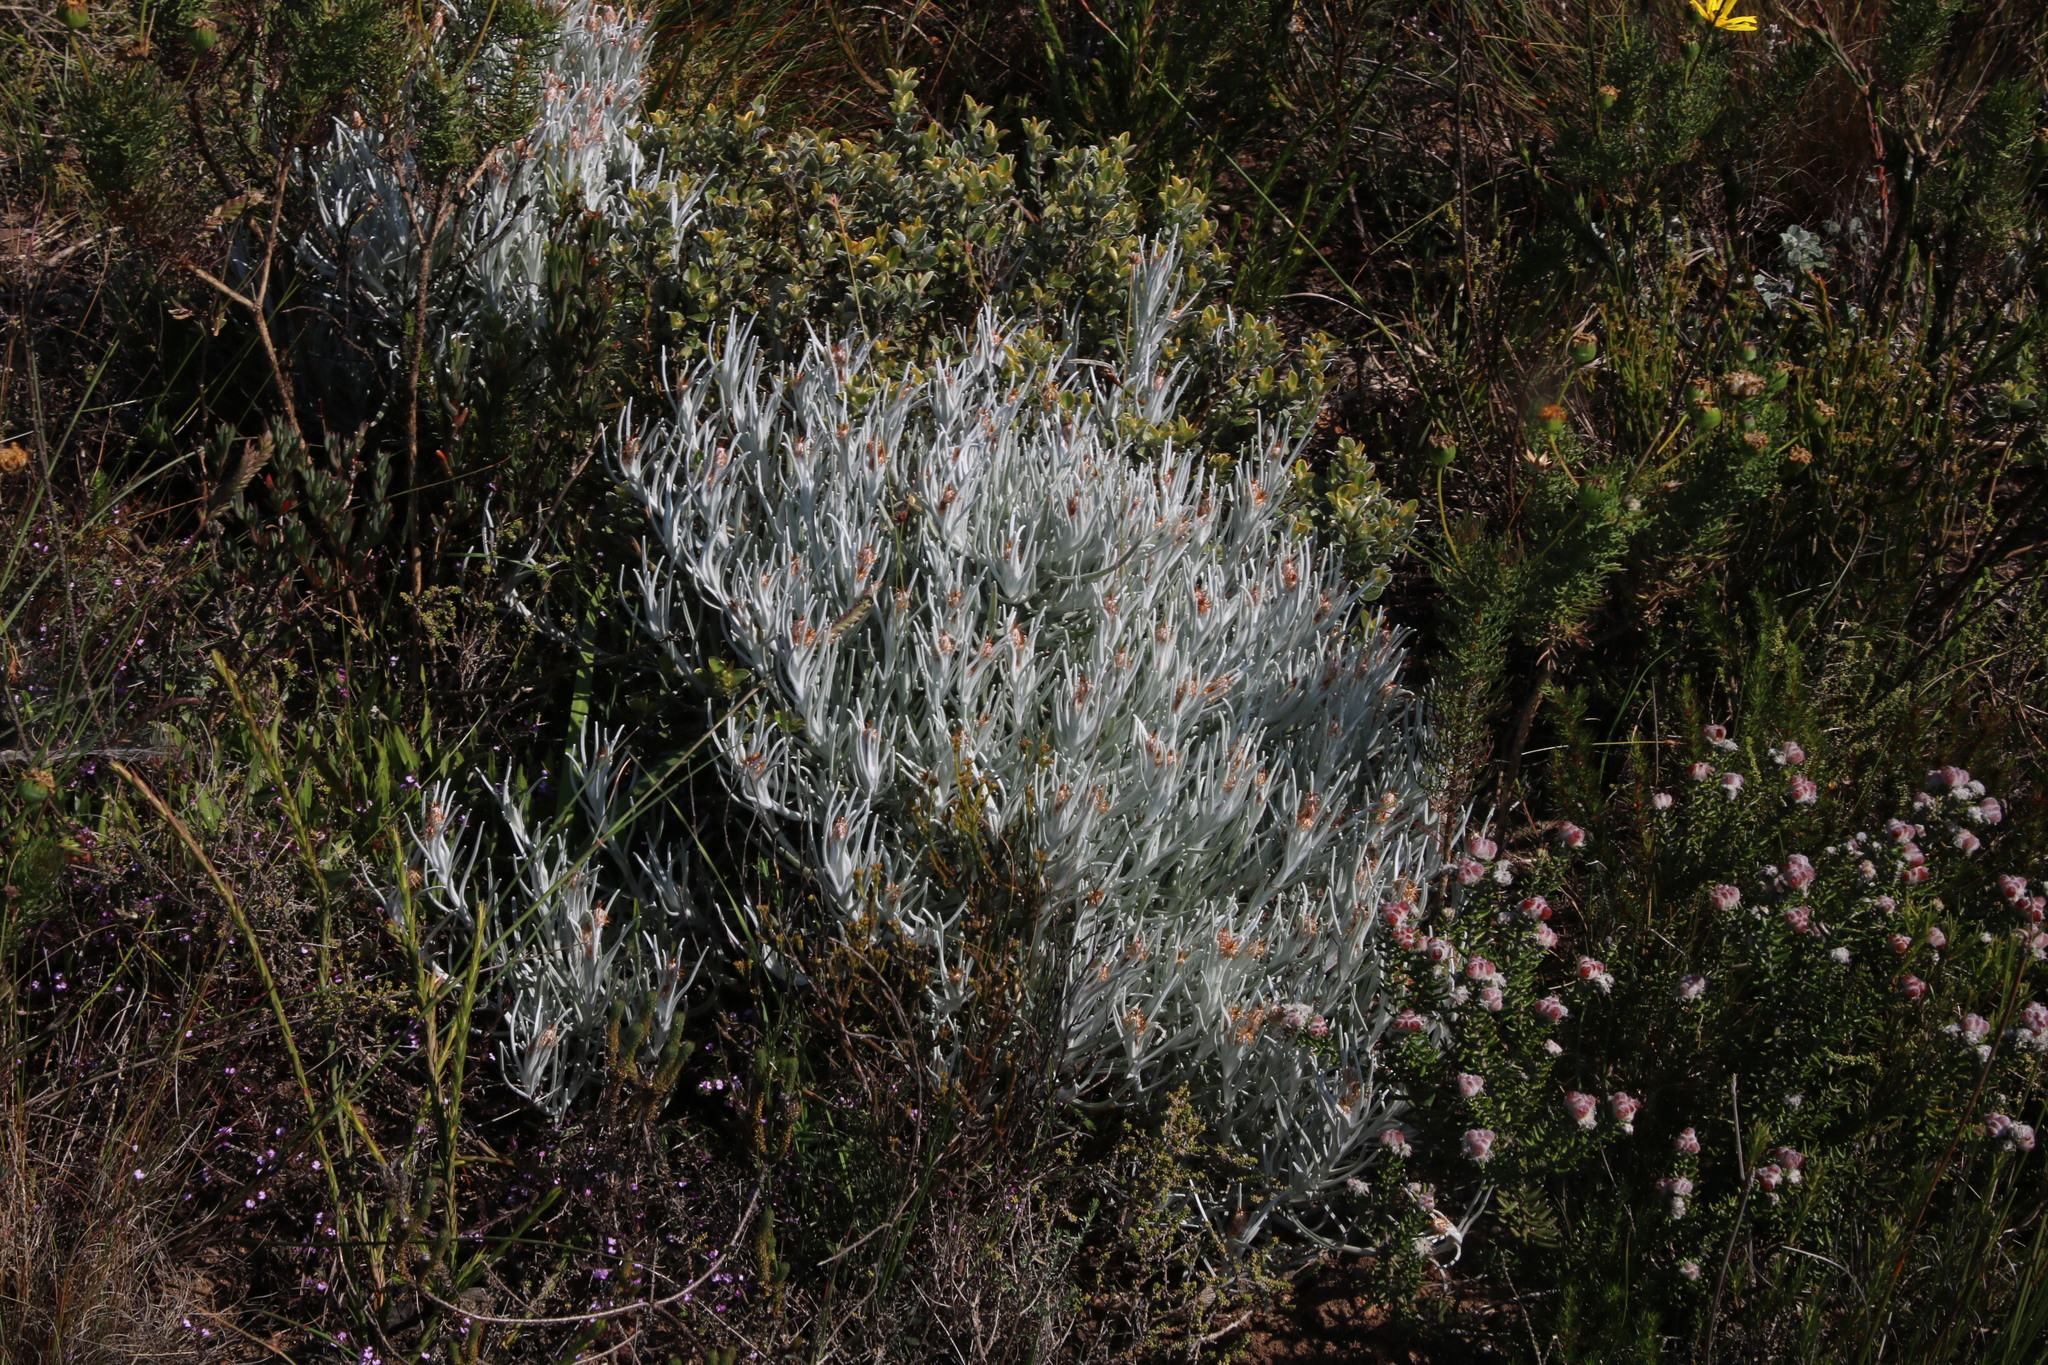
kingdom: Plantae
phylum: Tracheophyta
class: Magnoliopsida
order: Asterales
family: Asteraceae
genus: Syncarpha
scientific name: Syncarpha gnaphaloides
